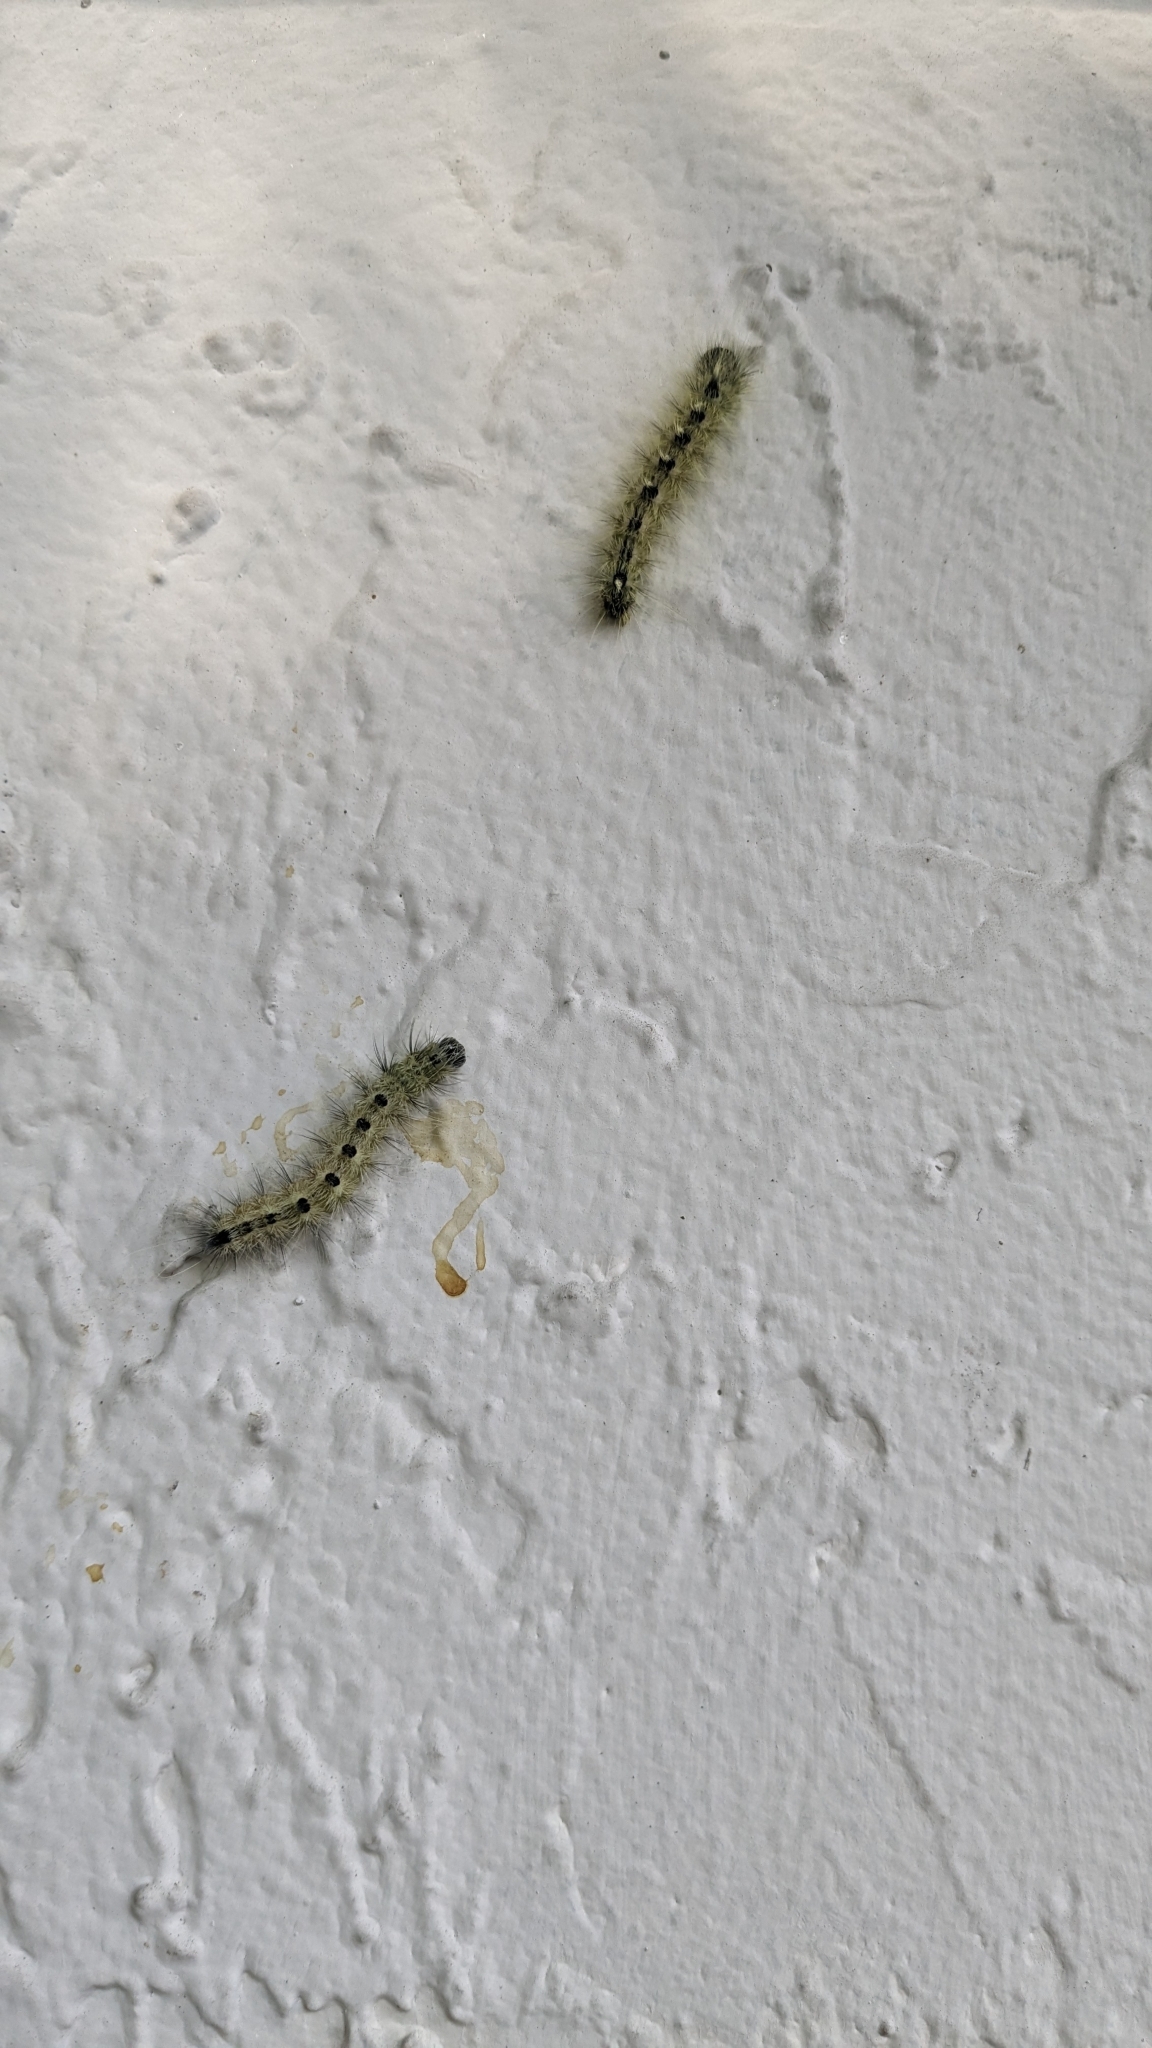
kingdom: Animalia
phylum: Arthropoda
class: Insecta
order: Lepidoptera
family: Noctuidae
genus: Acronicta
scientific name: Acronicta rubricoma
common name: Hackberry dagger
